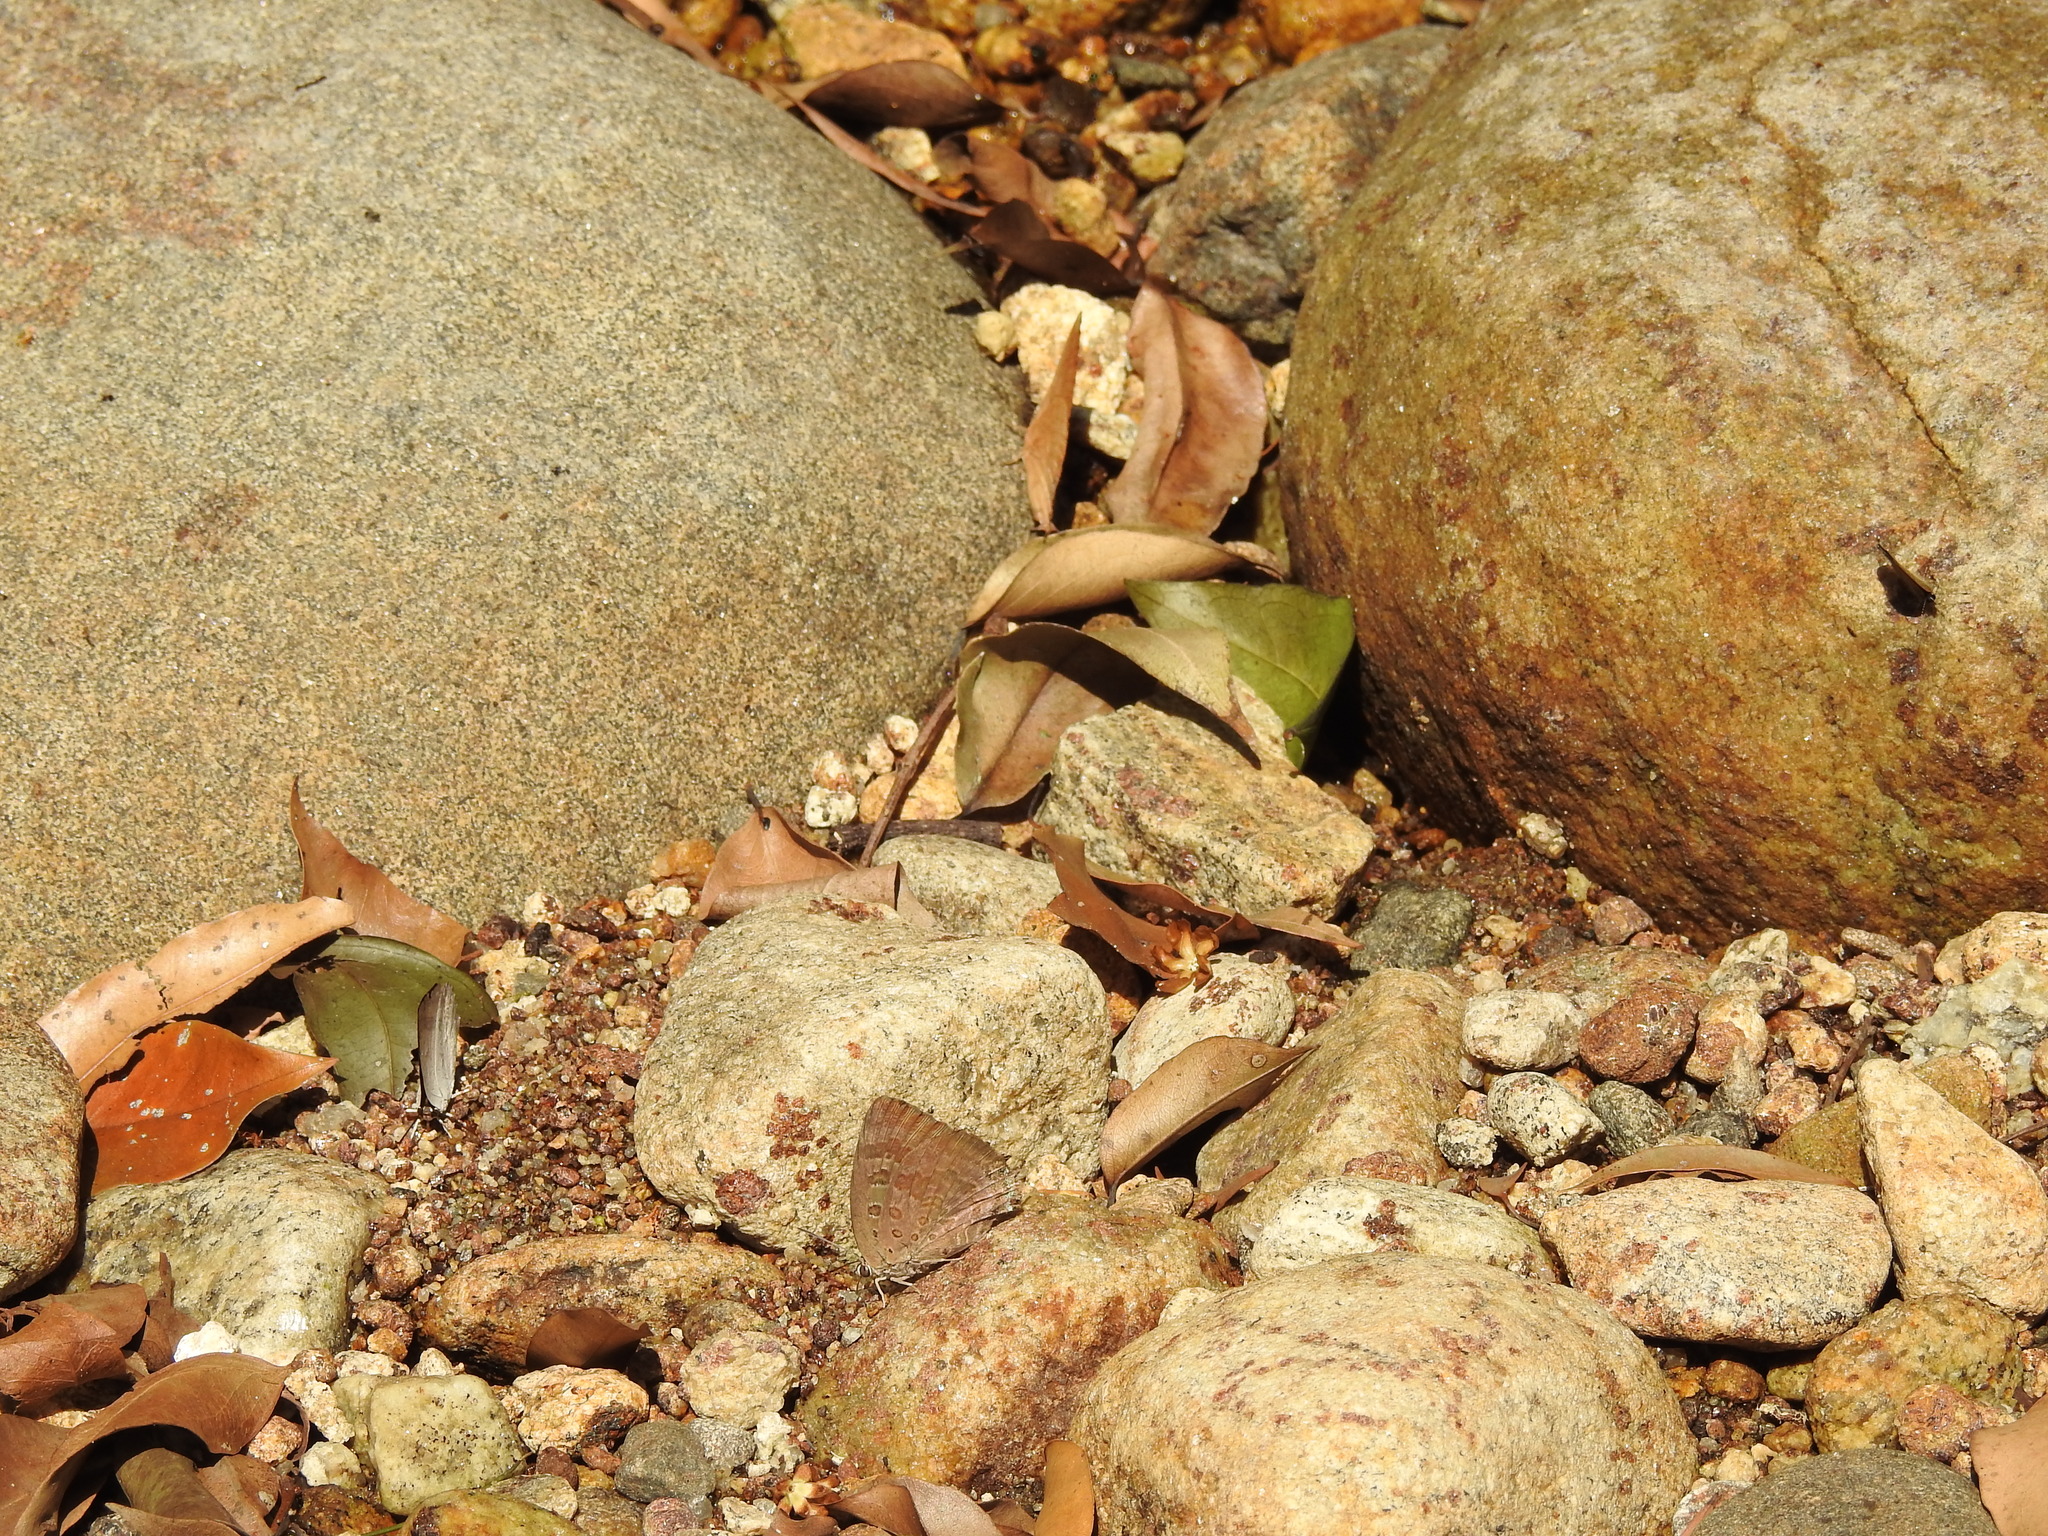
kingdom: Animalia
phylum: Arthropoda
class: Insecta
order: Lepidoptera
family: Lycaenidae
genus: Arhopala
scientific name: Arhopala amantes
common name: Large oakblue
